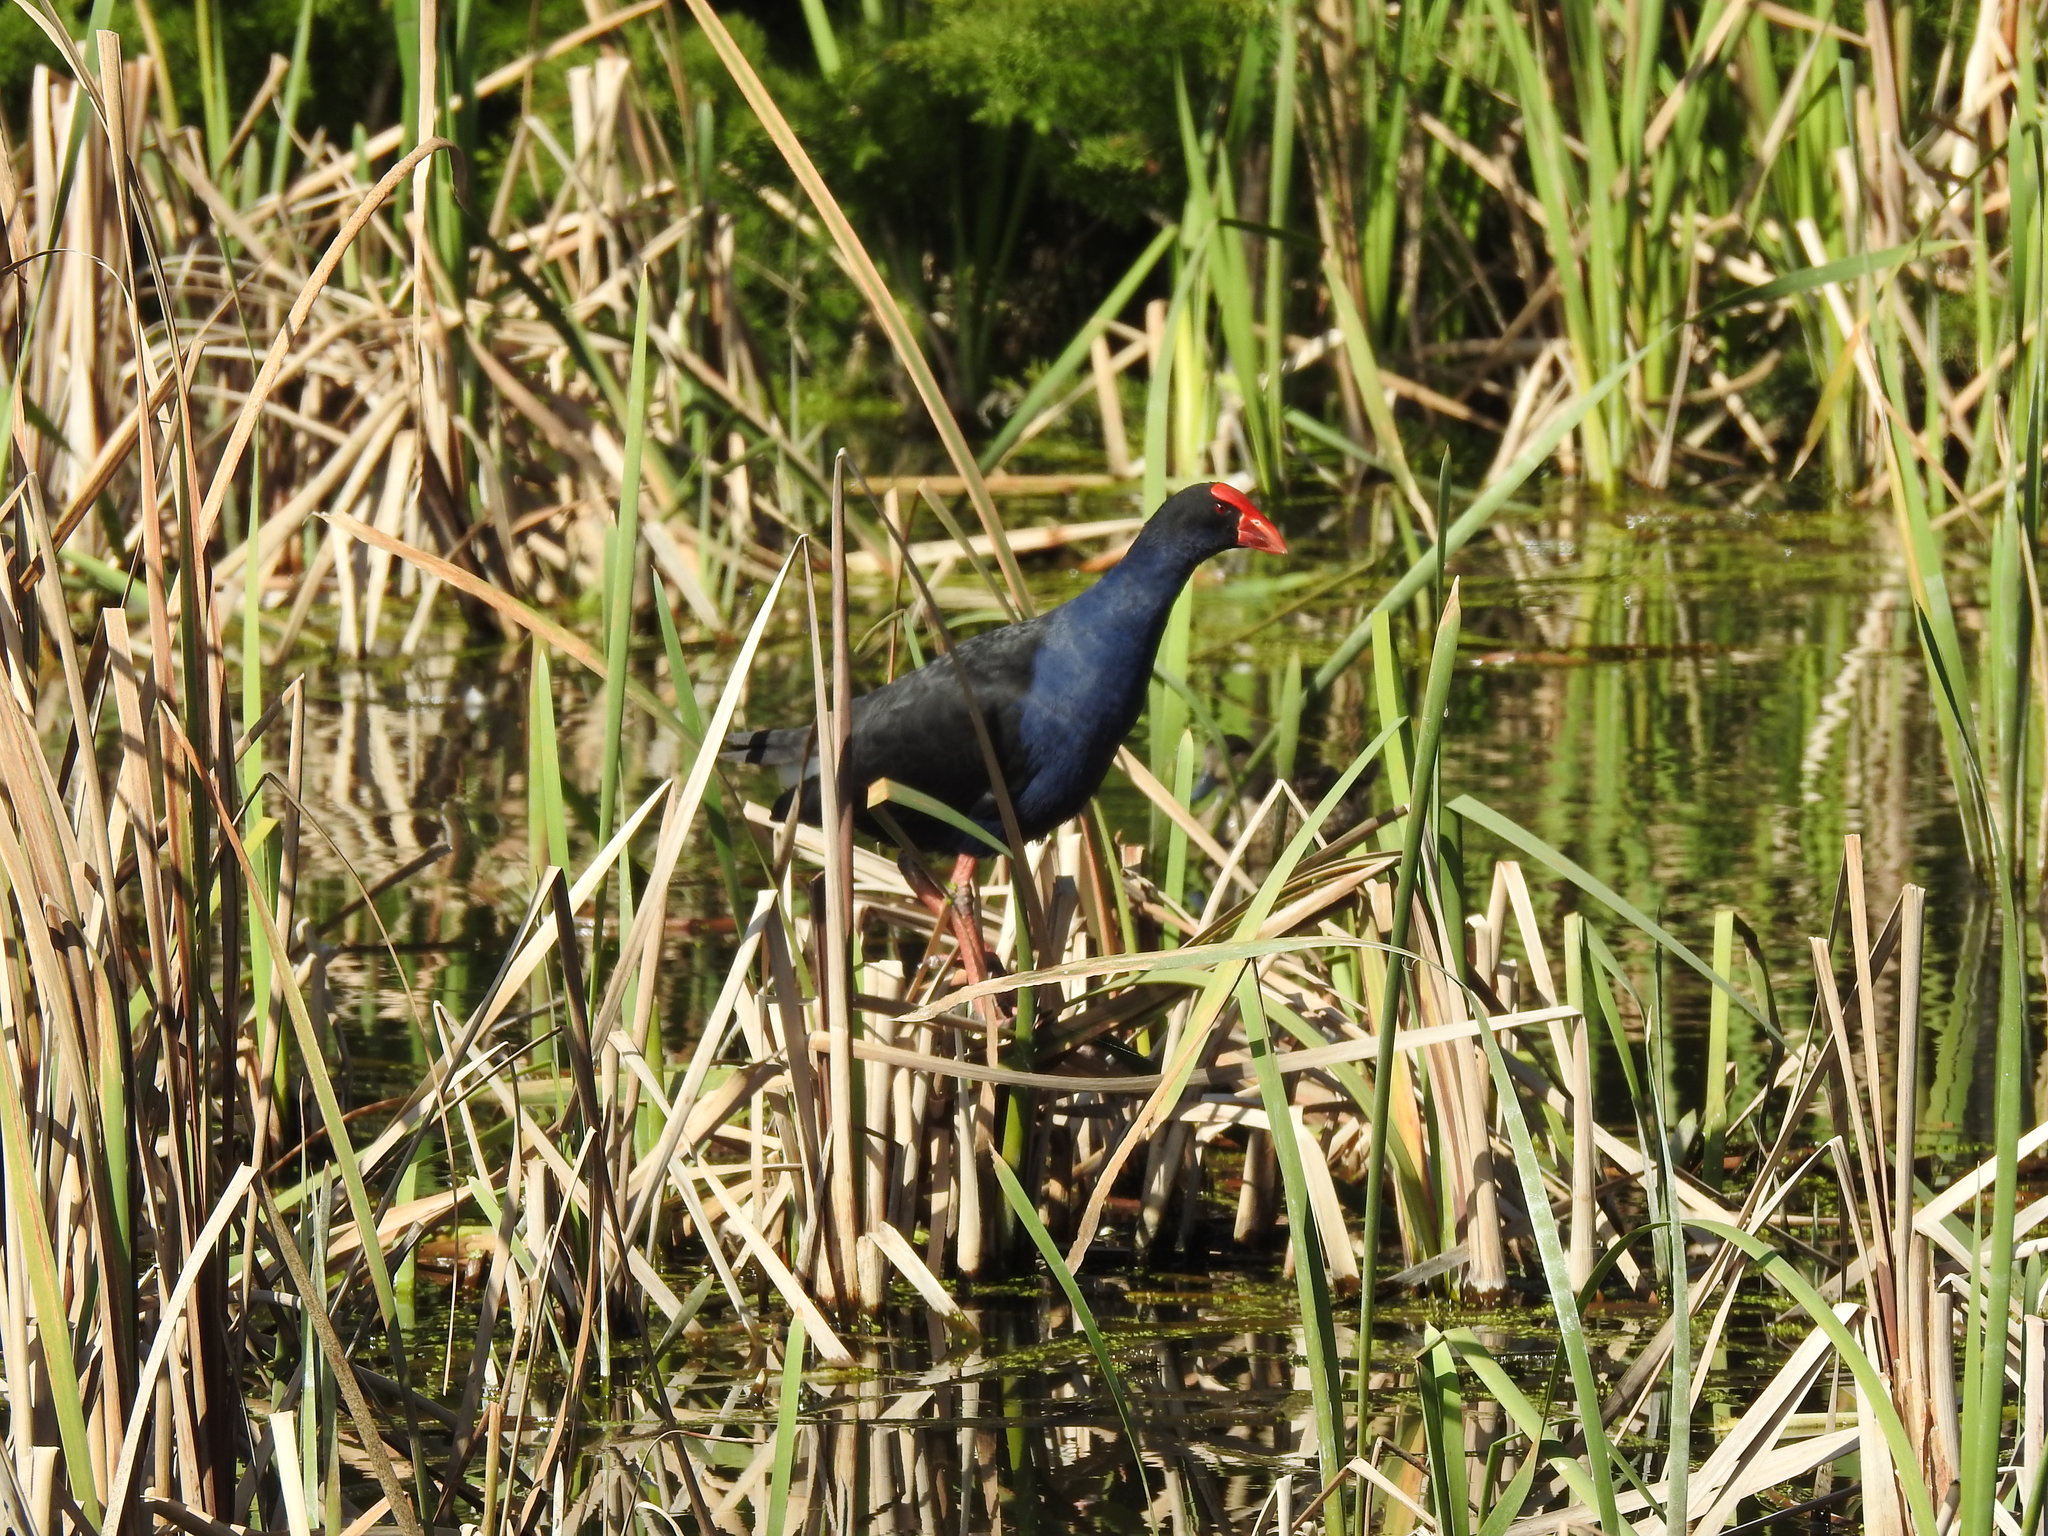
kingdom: Animalia
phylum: Chordata
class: Aves
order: Gruiformes
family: Rallidae
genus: Porphyrio
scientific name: Porphyrio melanotus
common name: Australasian swamphen
